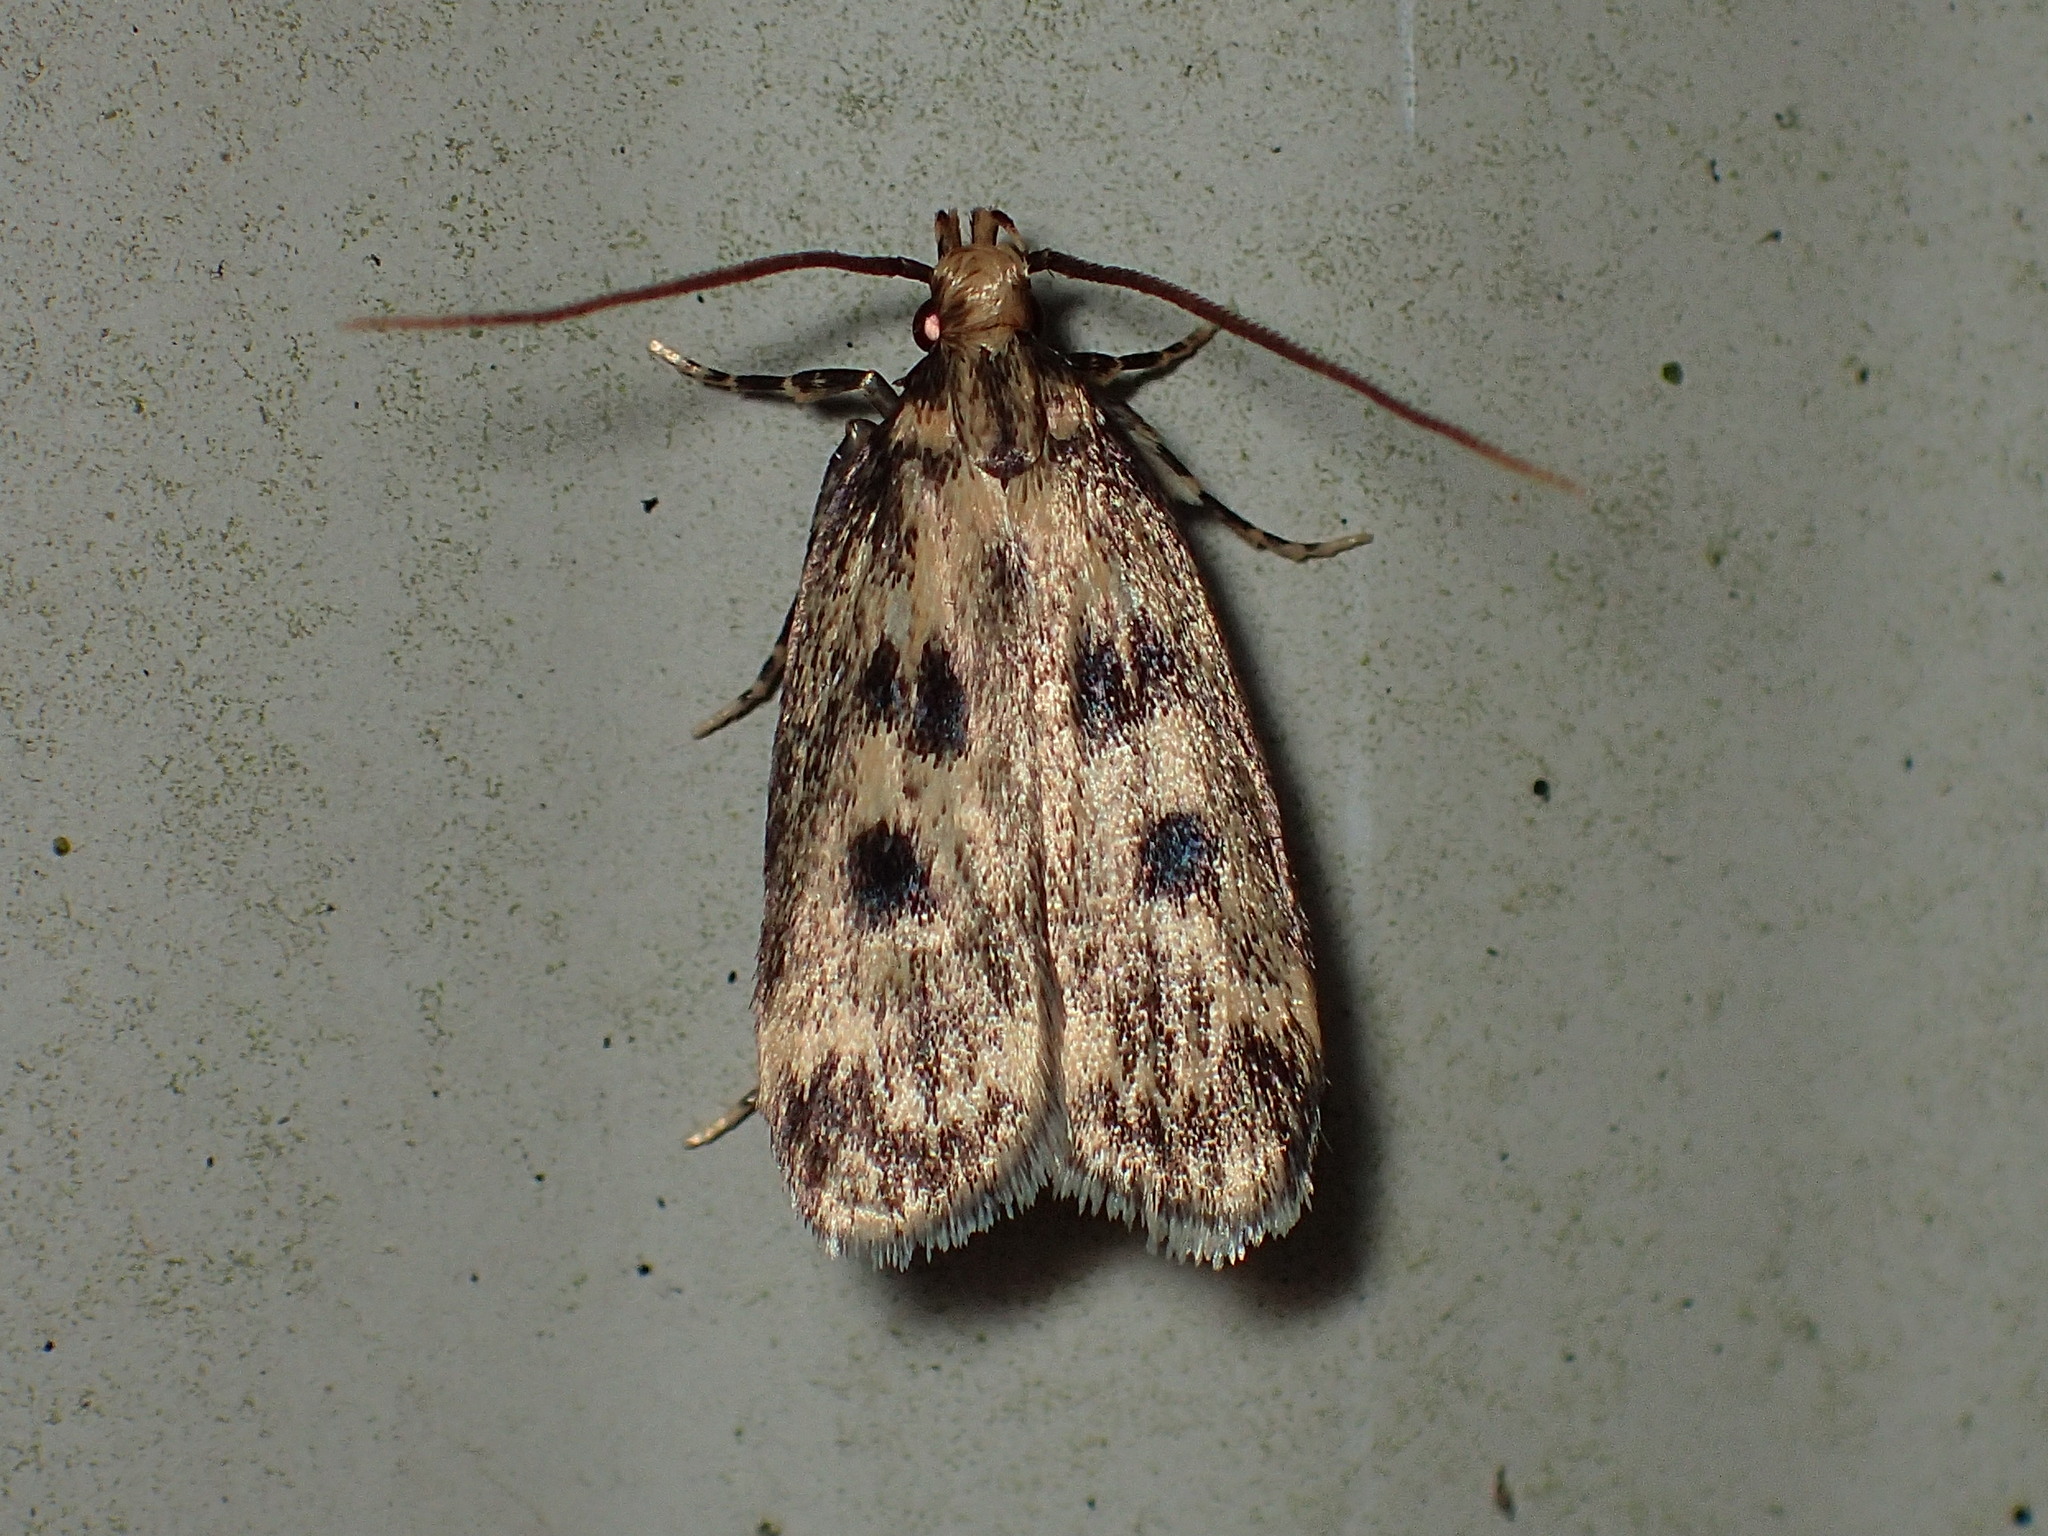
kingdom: Animalia
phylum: Arthropoda
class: Insecta
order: Lepidoptera
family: Lecithoceridae
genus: Martyringa
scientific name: Martyringa latipennis
